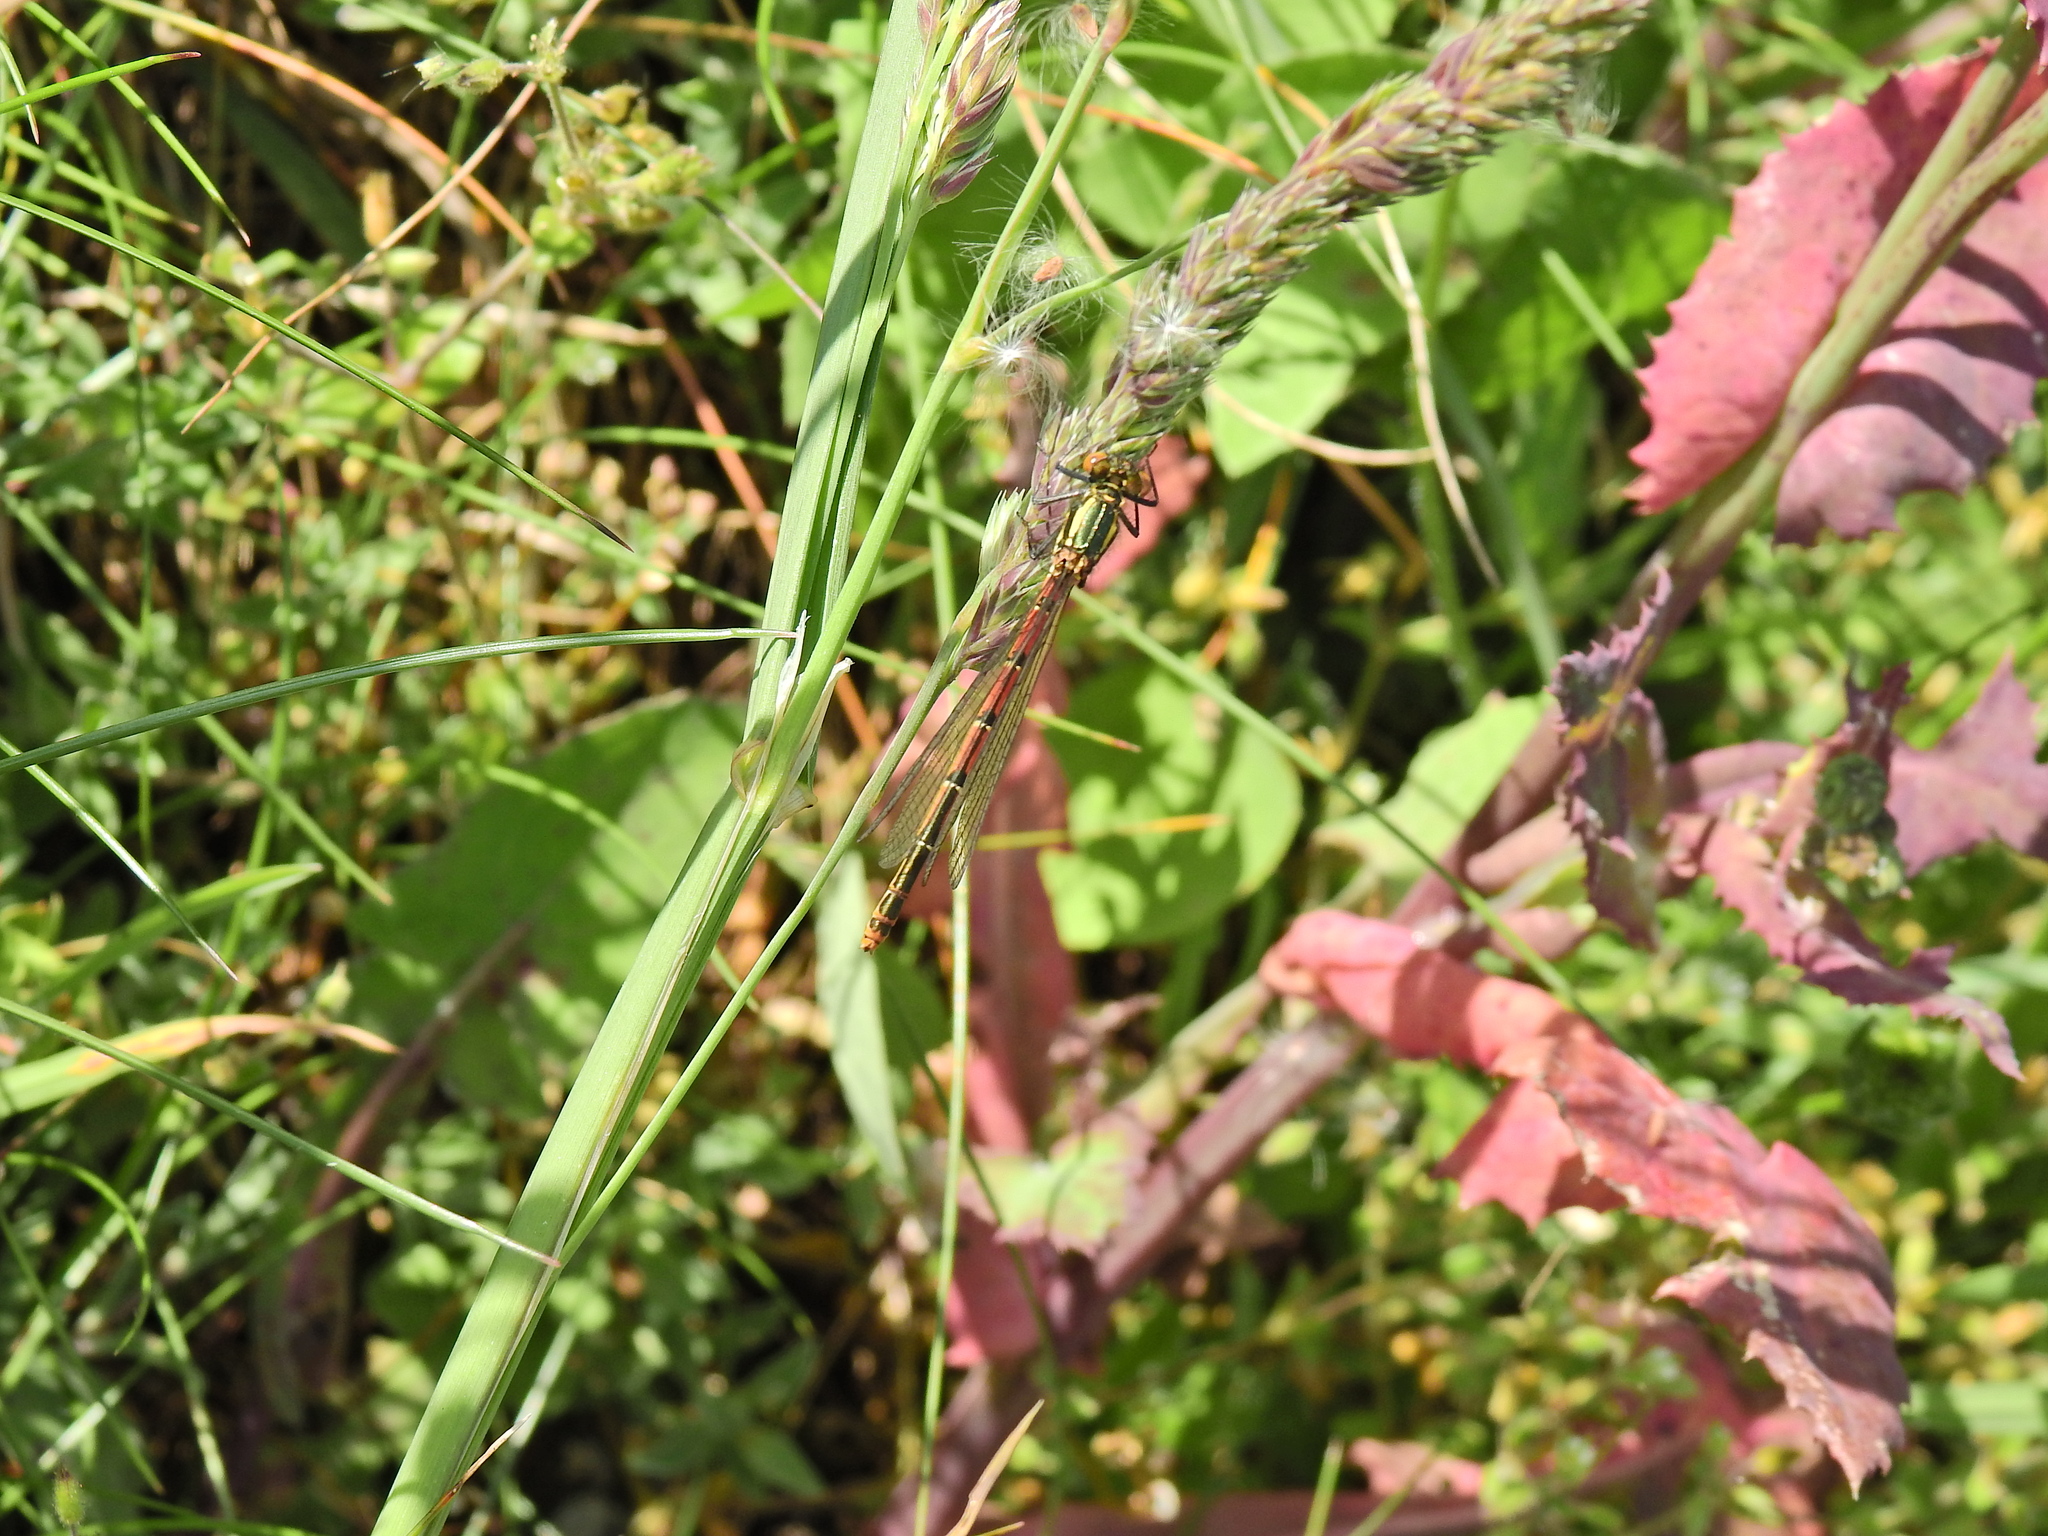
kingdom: Animalia
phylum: Arthropoda
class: Insecta
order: Odonata
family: Coenagrionidae
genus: Pyrrhosoma
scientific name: Pyrrhosoma nymphula
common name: Large red damsel
